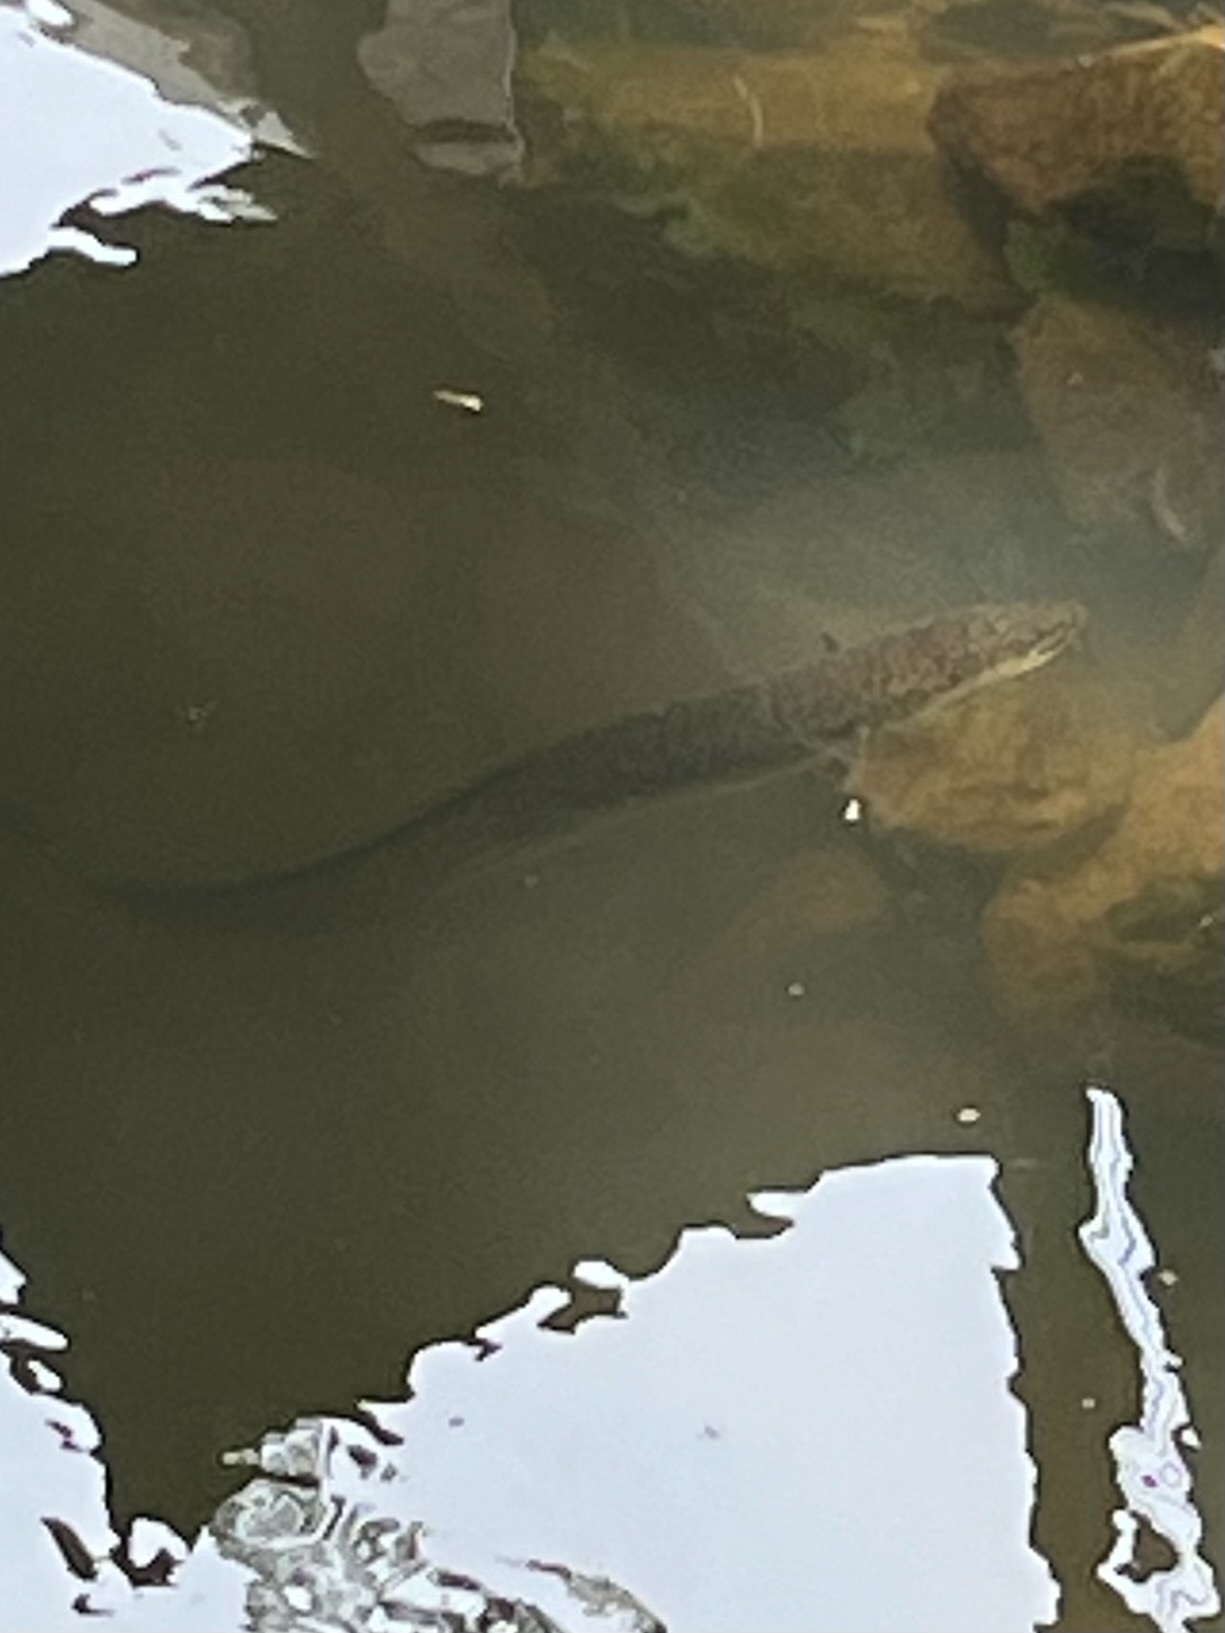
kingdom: Animalia
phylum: Chordata
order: Anguilliformes
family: Anguillidae
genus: Anguilla
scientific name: Anguilla reinhardtii
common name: Longfin eel
